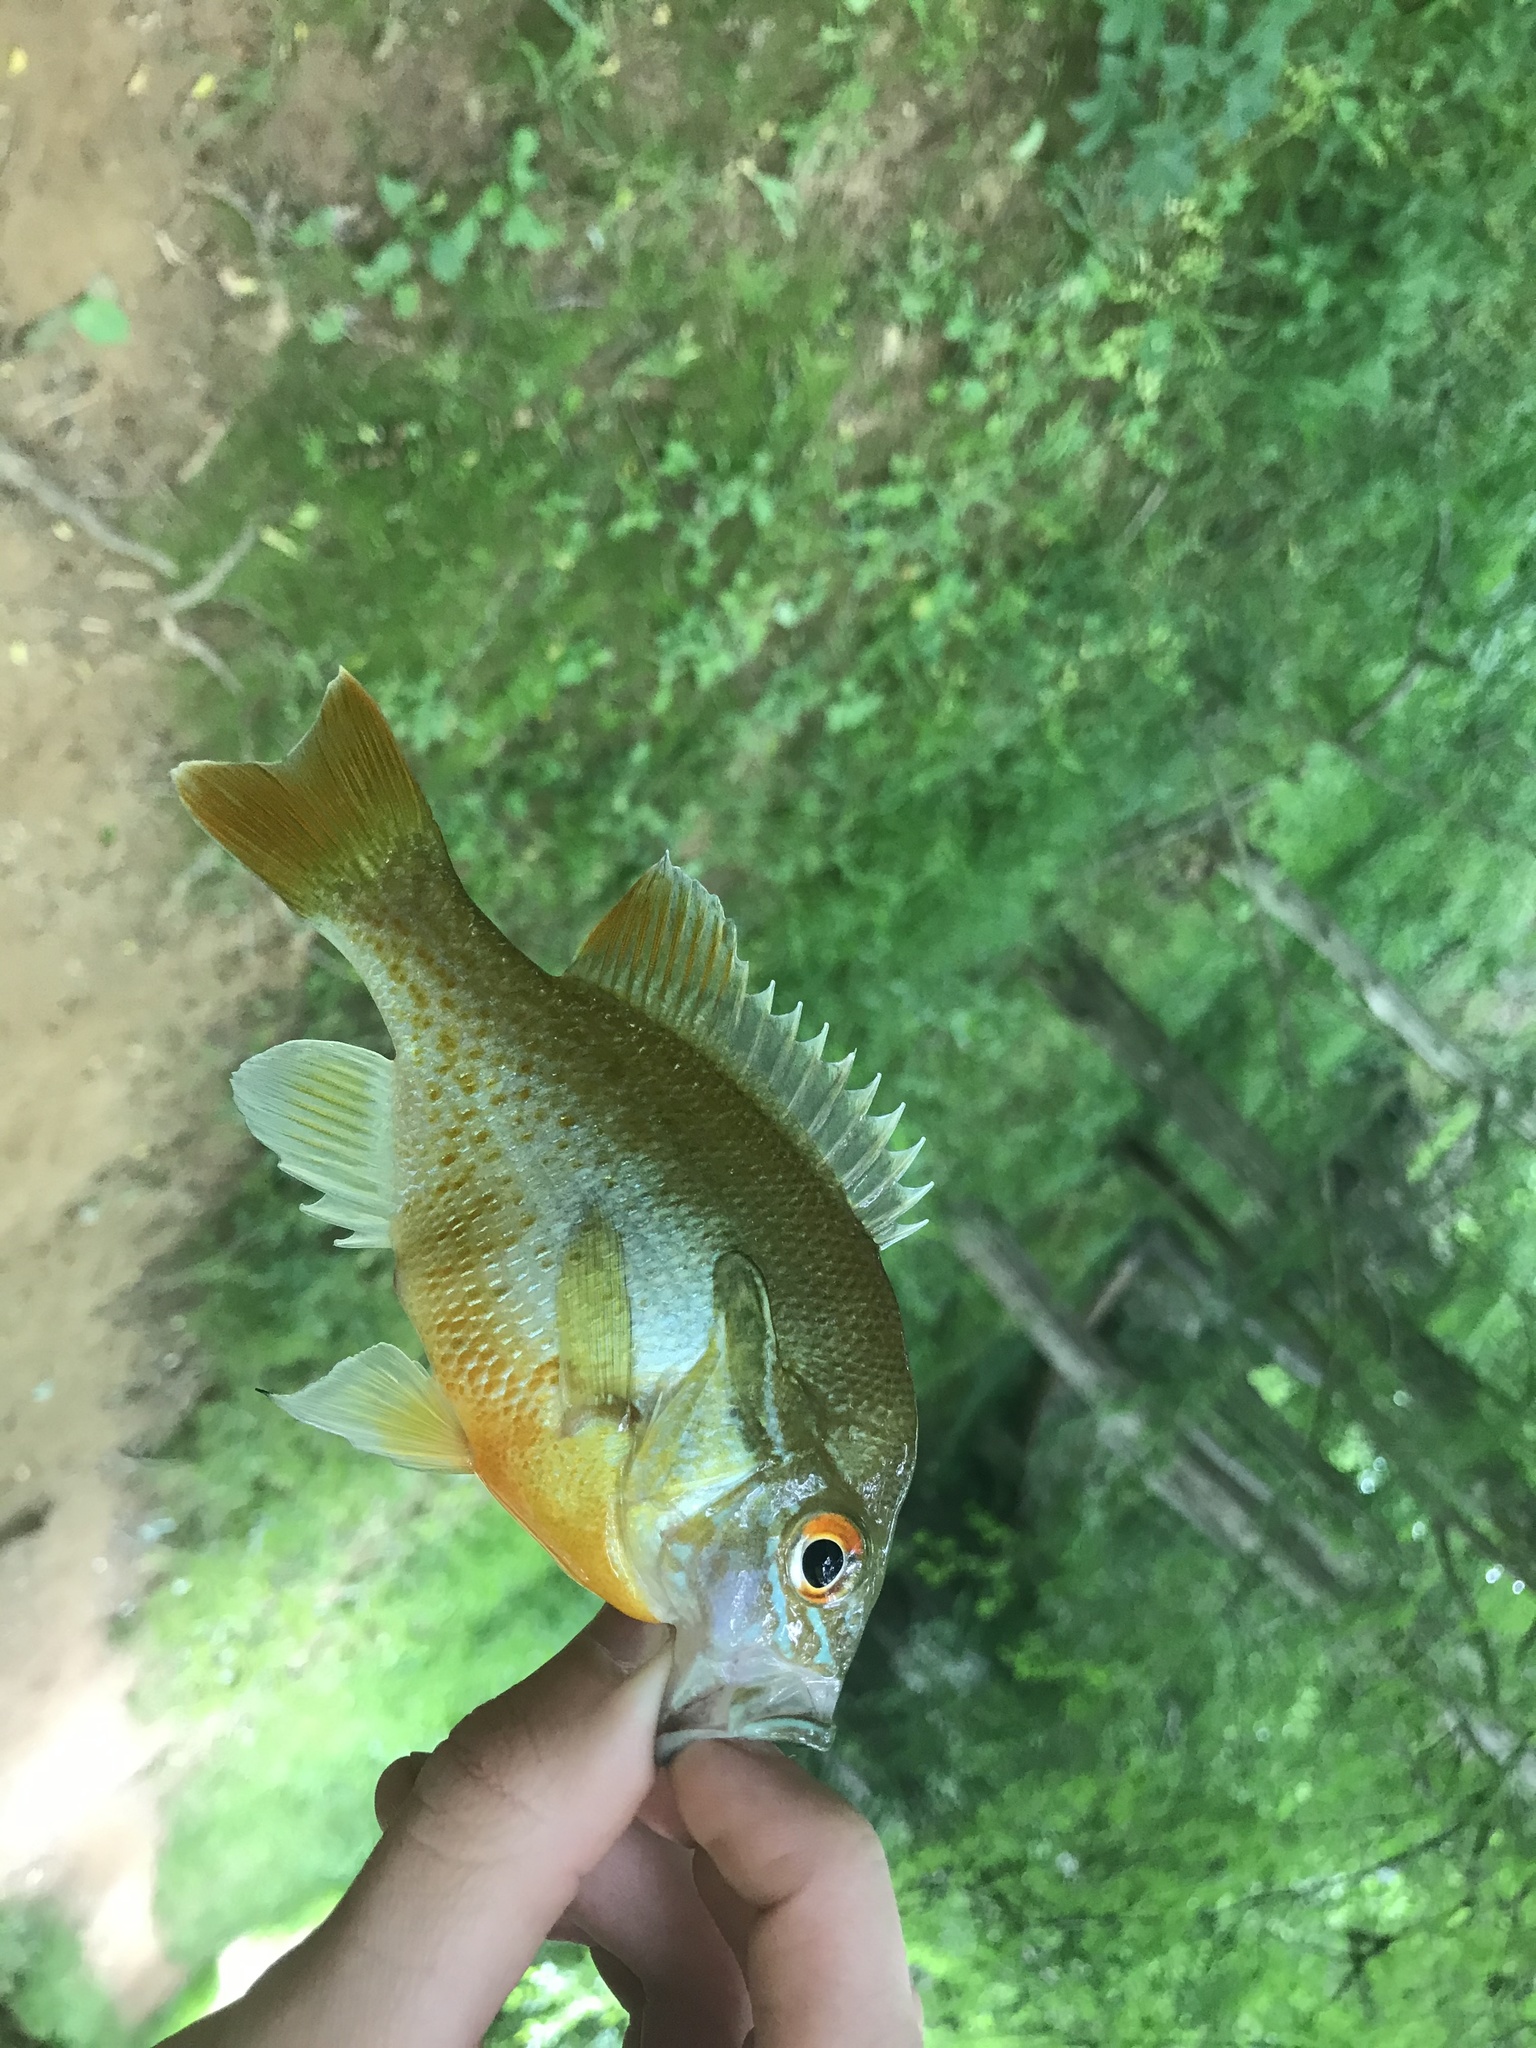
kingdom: Animalia
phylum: Chordata
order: Perciformes
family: Centrarchidae
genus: Lepomis
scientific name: Lepomis auritus
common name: Redbreast sunfish
